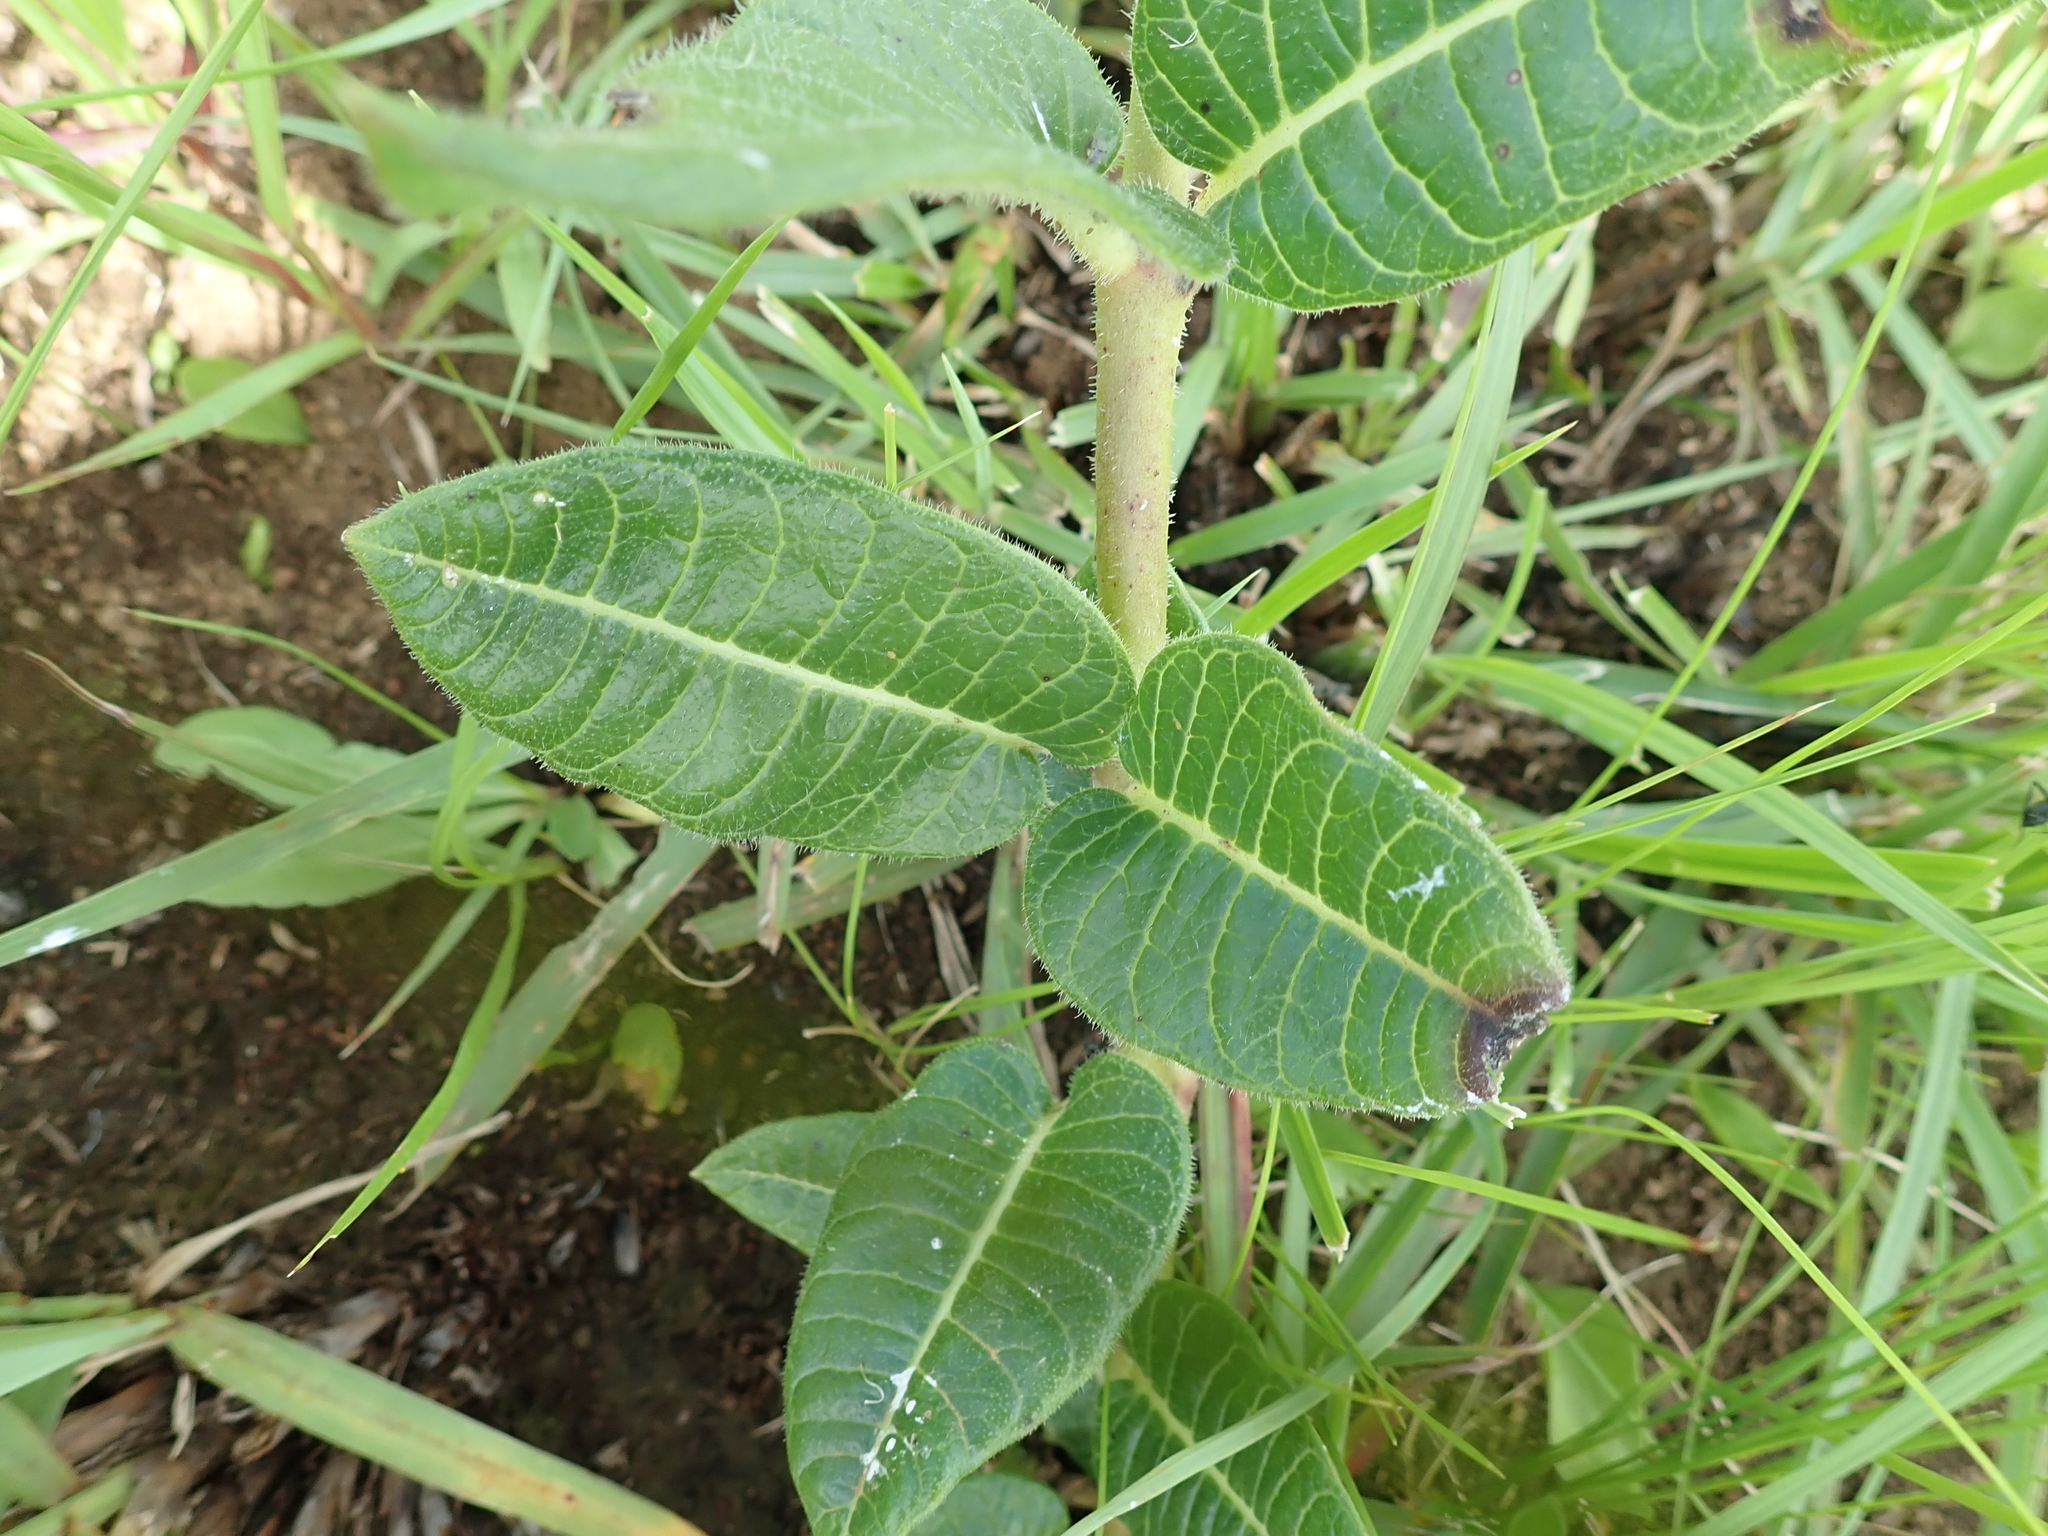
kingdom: Plantae
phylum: Tracheophyta
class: Magnoliopsida
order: Gentianales
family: Apocynaceae
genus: Asclepias
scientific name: Asclepias macropus
